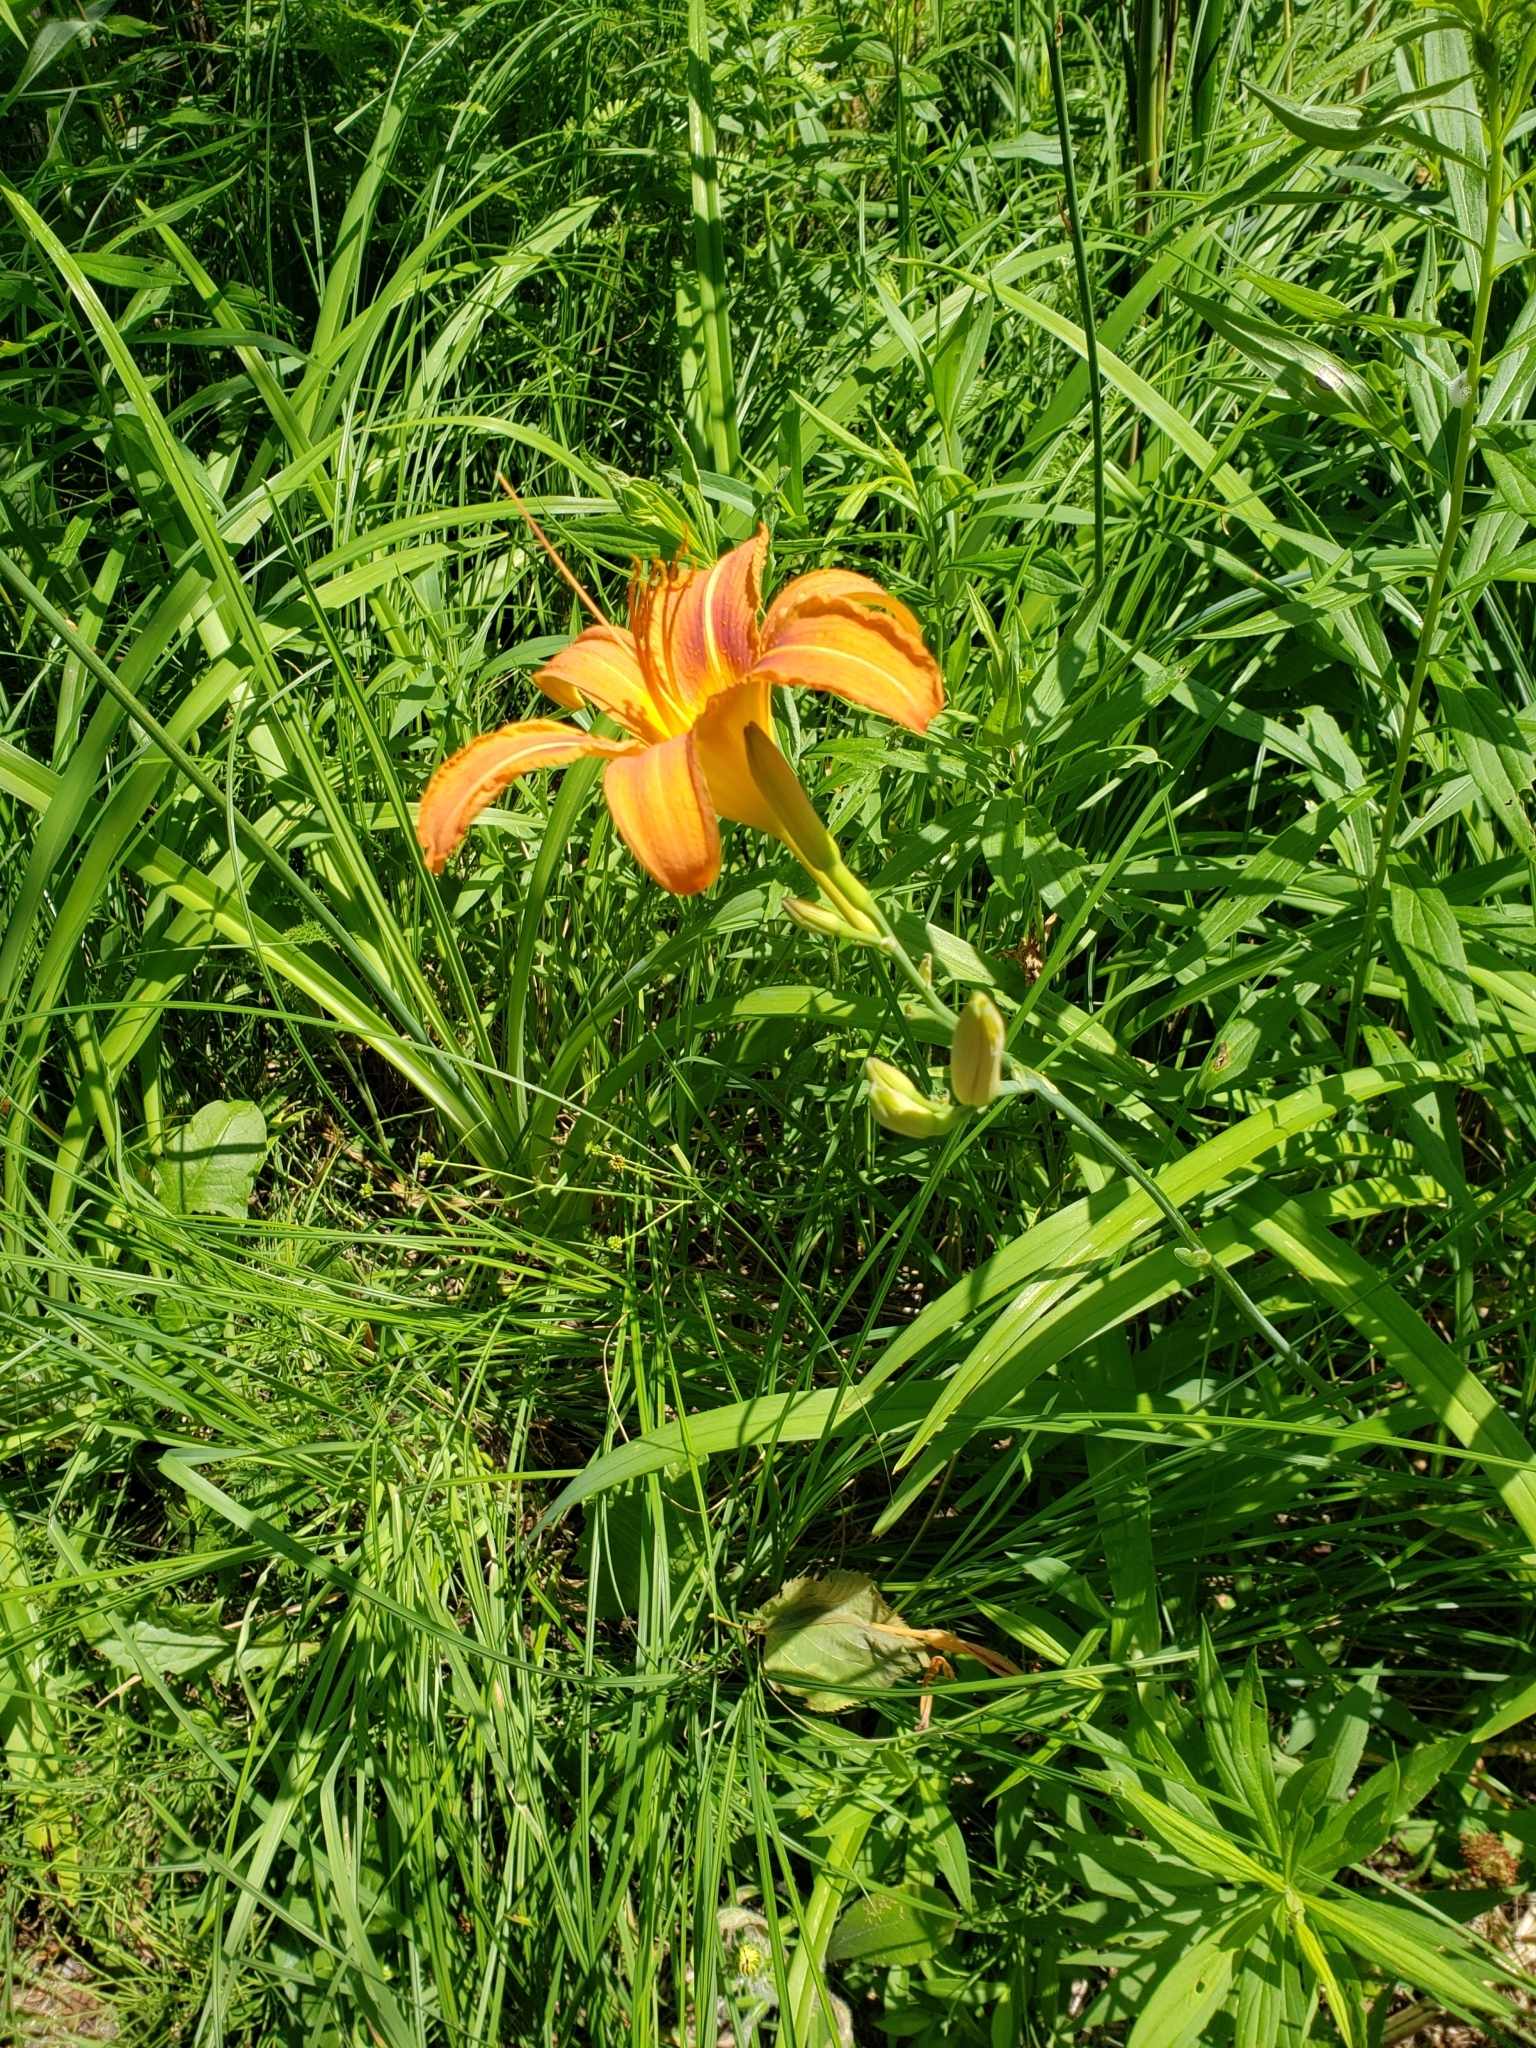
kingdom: Plantae
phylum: Tracheophyta
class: Liliopsida
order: Asparagales
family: Asphodelaceae
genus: Hemerocallis
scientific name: Hemerocallis fulva
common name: Orange day-lily
